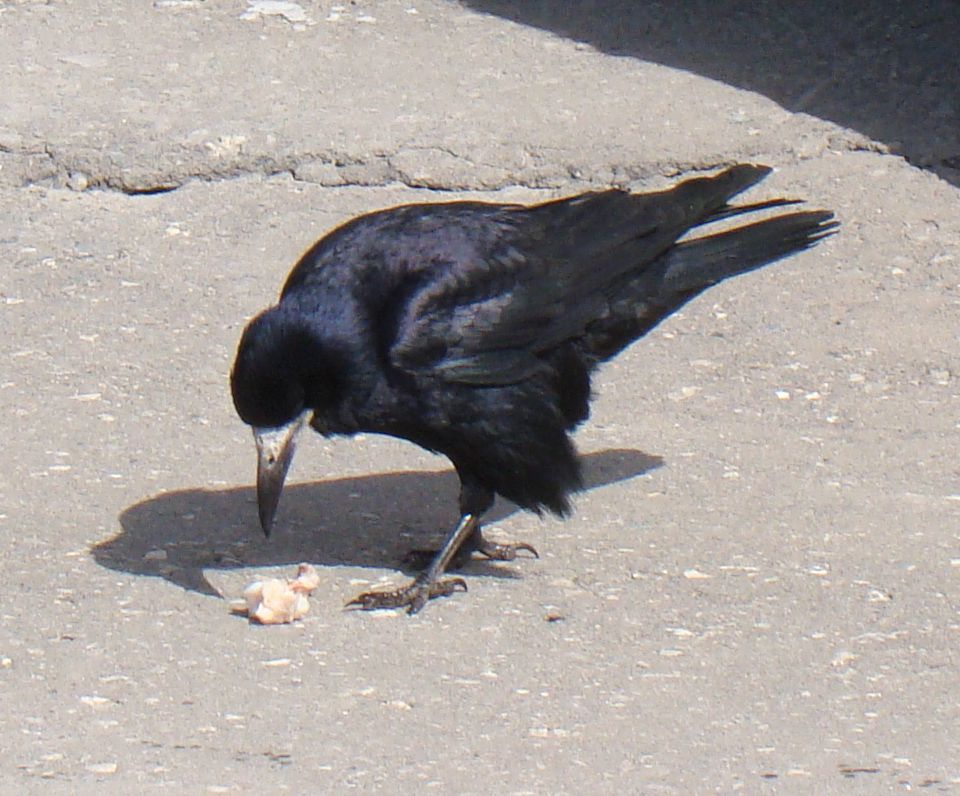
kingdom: Animalia
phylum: Chordata
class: Aves
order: Passeriformes
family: Corvidae
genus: Corvus
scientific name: Corvus frugilegus
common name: Rook
